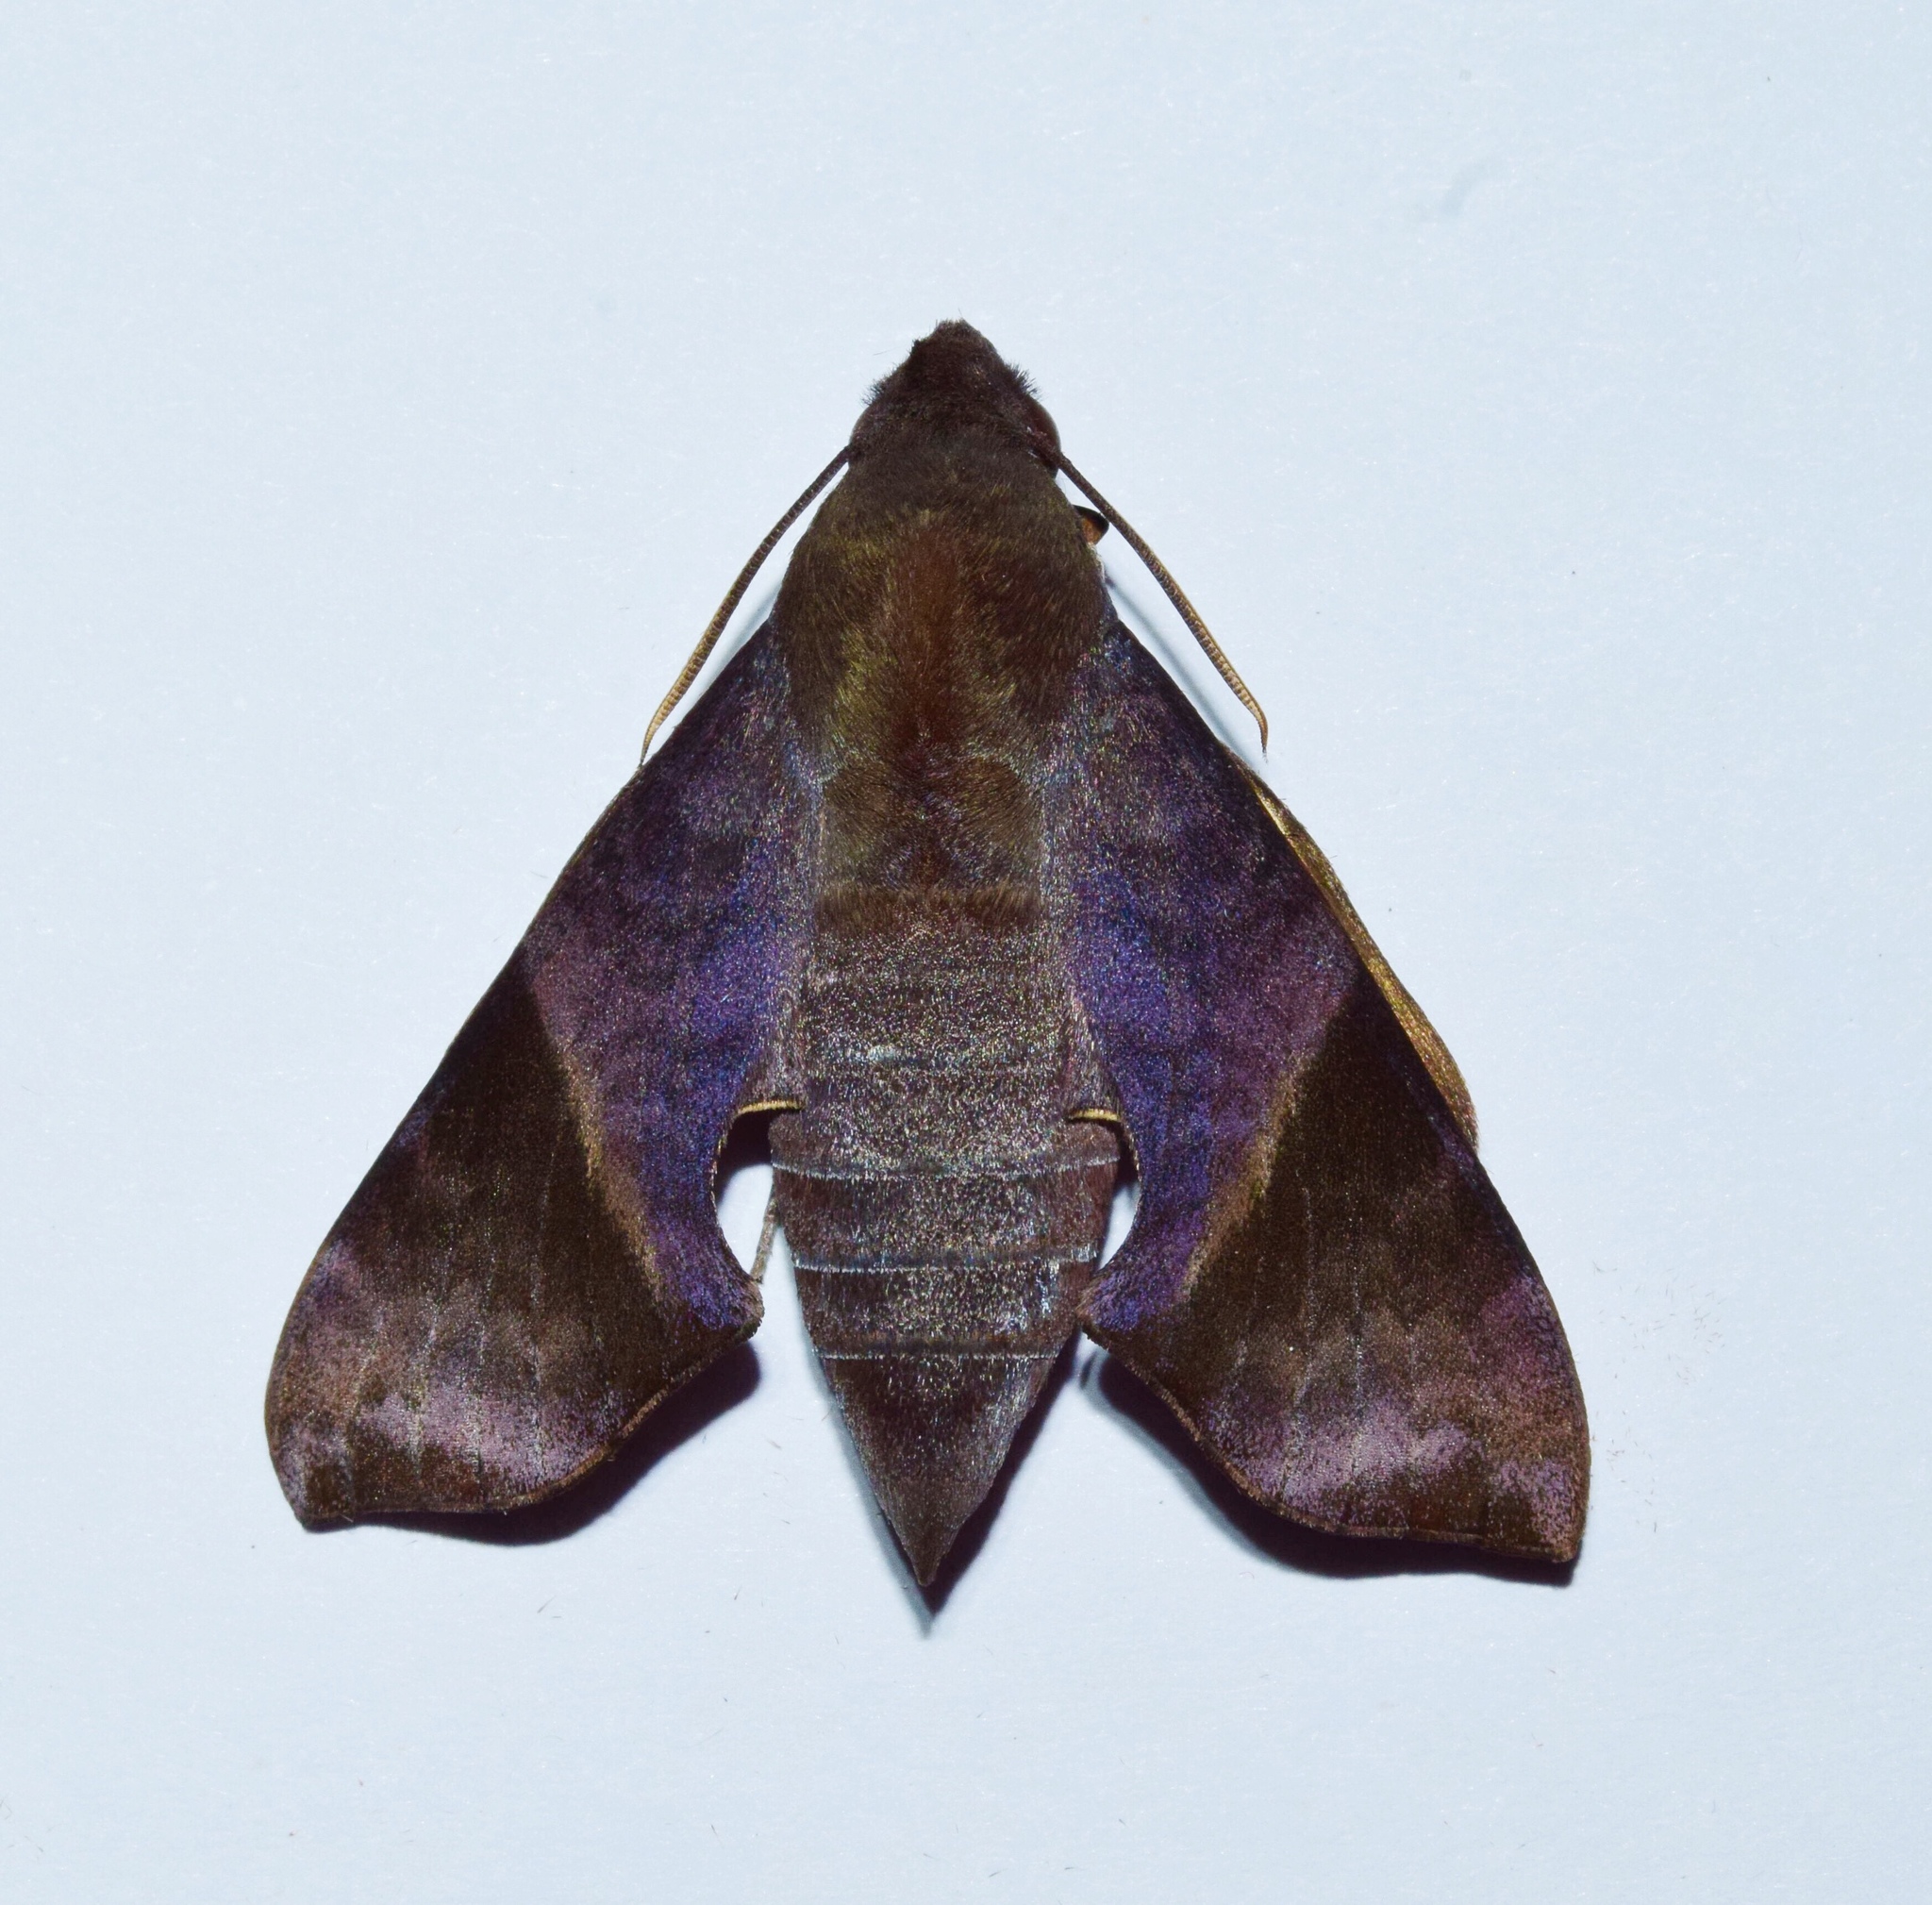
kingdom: Animalia
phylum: Arthropoda
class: Insecta
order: Lepidoptera
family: Sphingidae
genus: Temnora
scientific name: Temnora marginata
